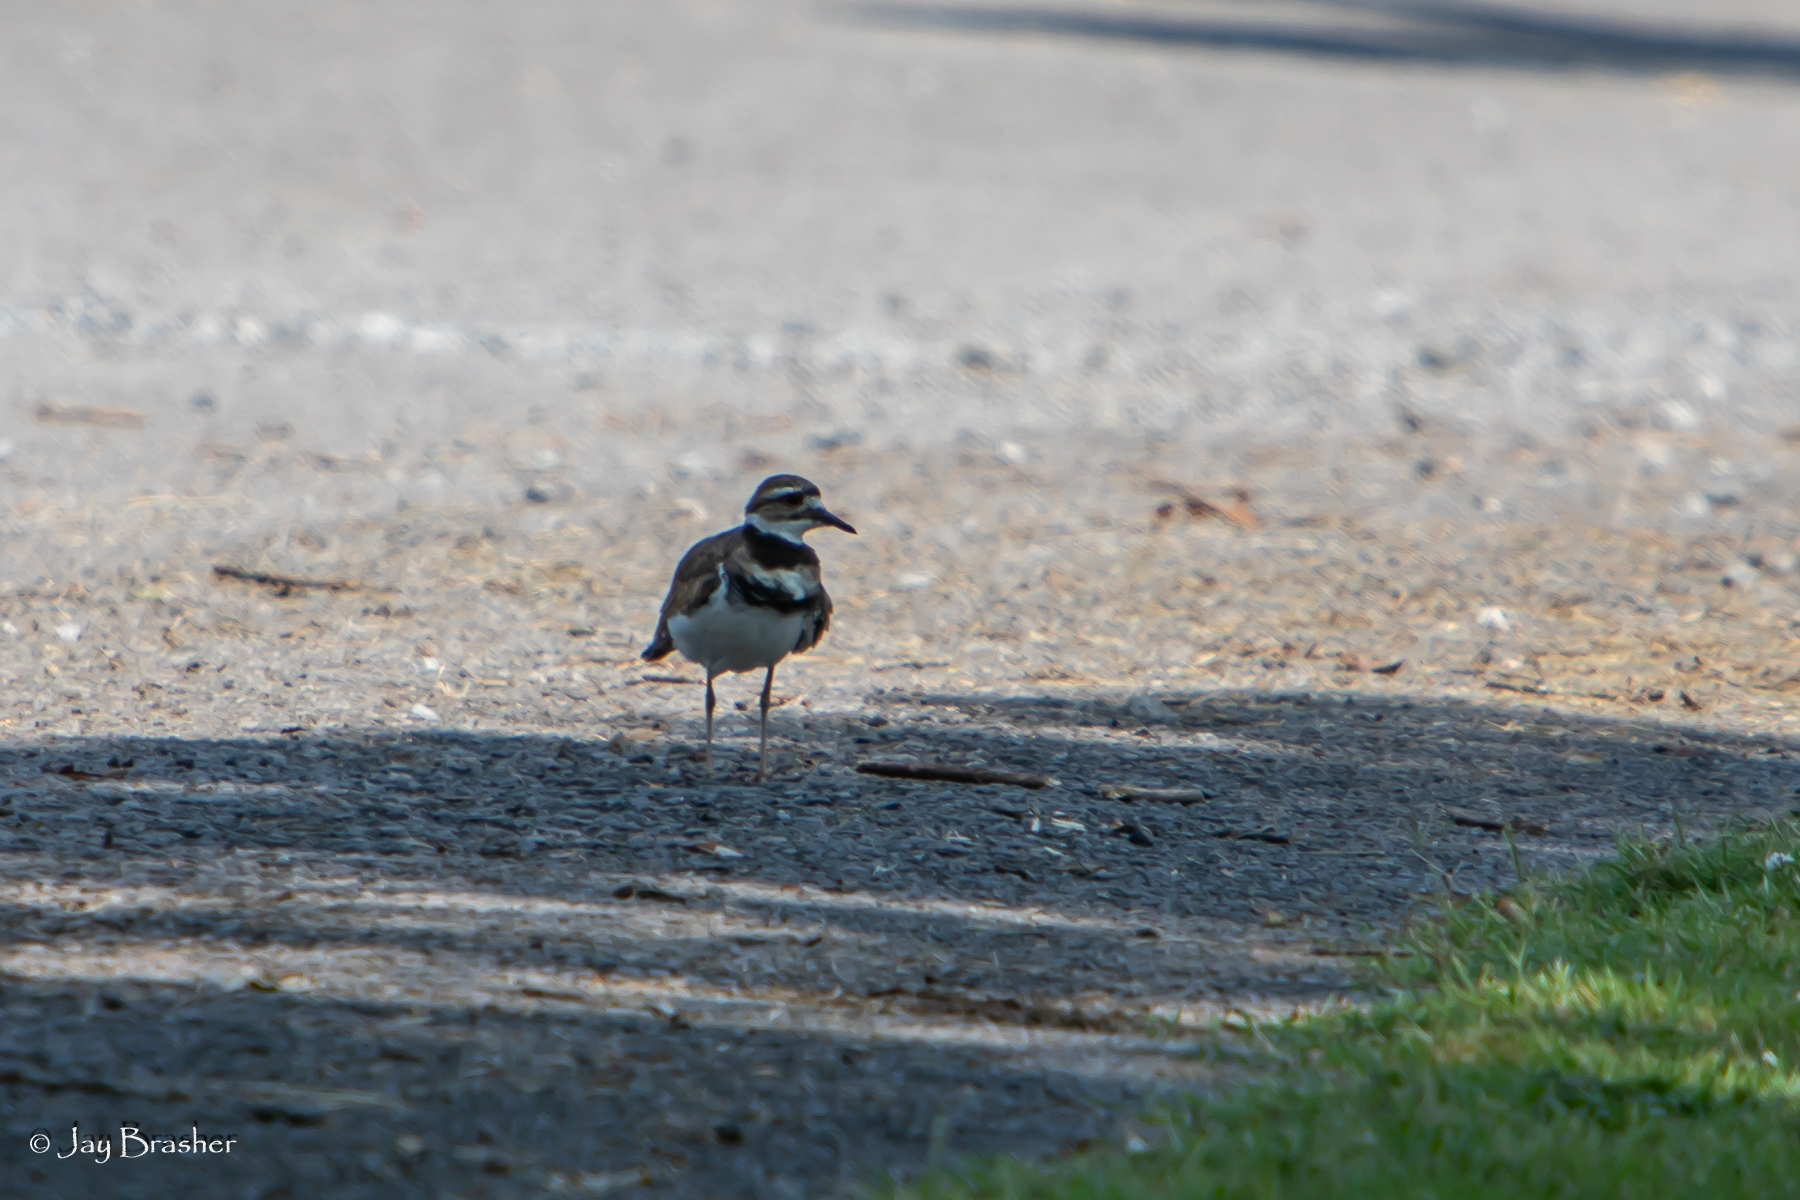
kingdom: Animalia
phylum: Chordata
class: Aves
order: Charadriiformes
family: Charadriidae
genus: Charadrius
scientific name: Charadrius vociferus
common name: Killdeer
